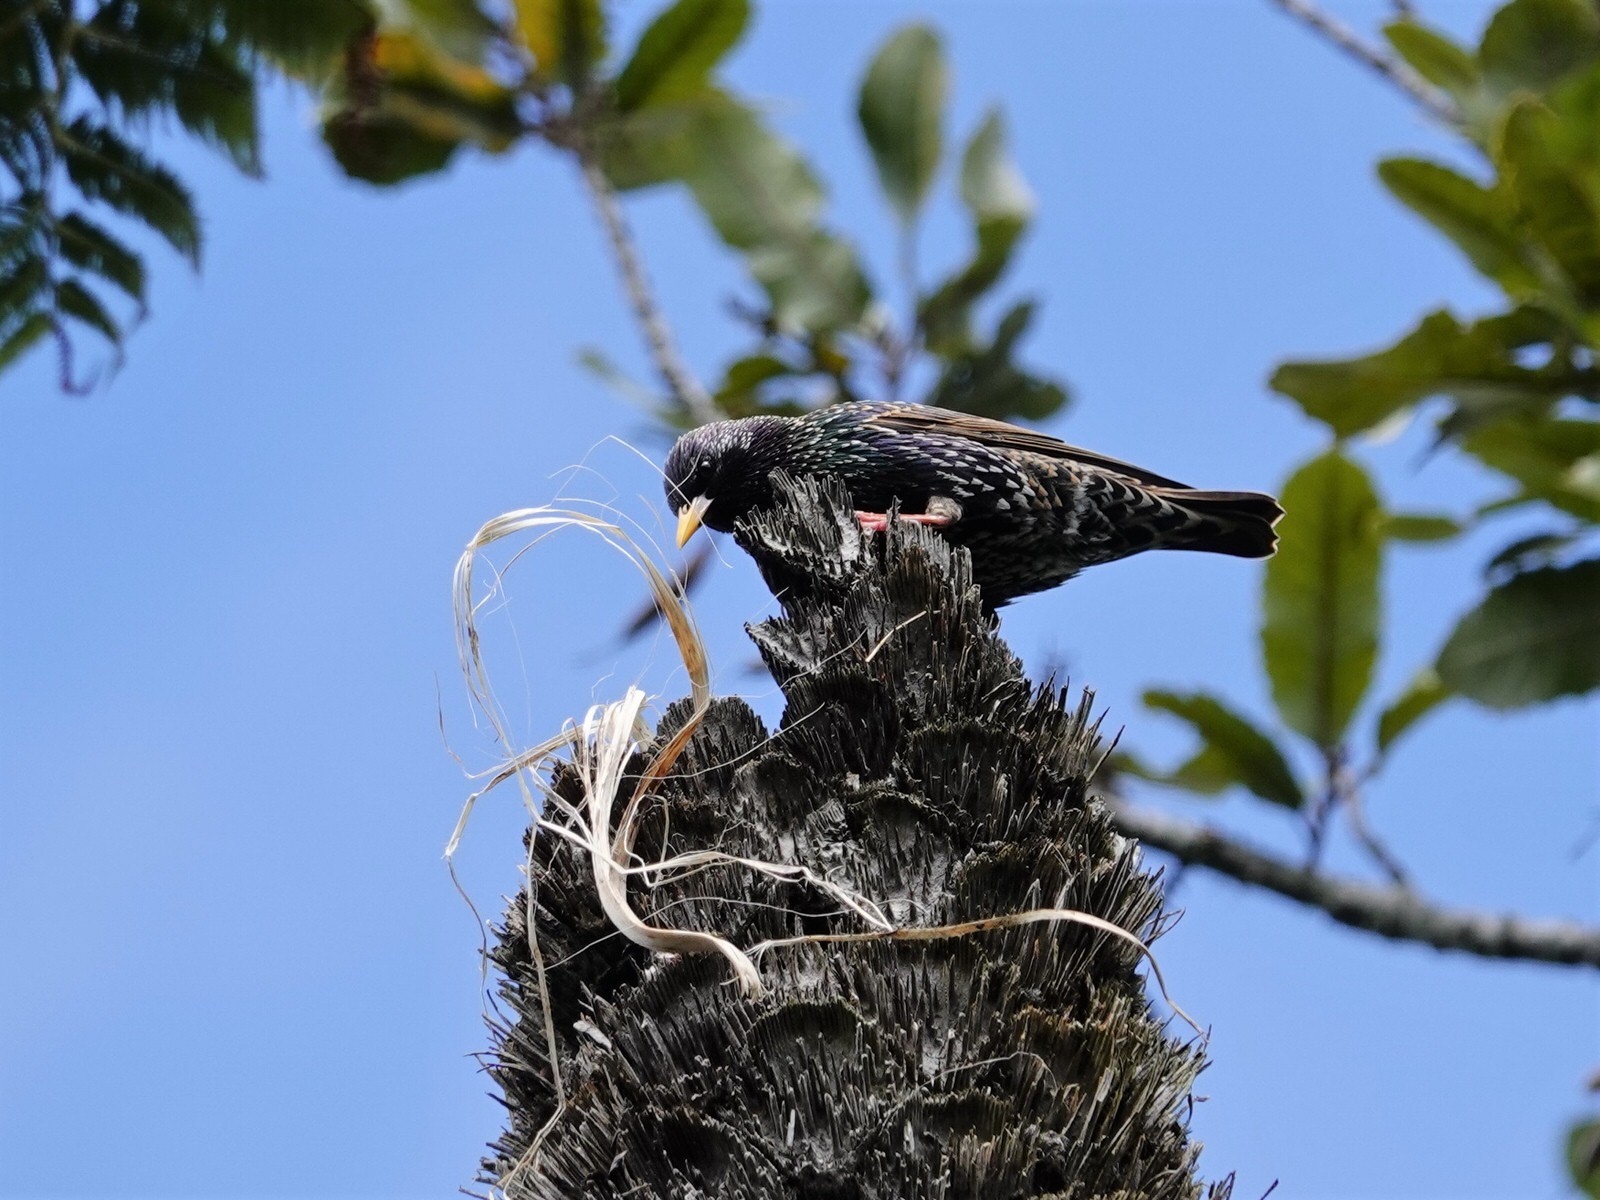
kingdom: Animalia
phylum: Chordata
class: Aves
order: Passeriformes
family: Sturnidae
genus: Sturnus
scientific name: Sturnus vulgaris
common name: Common starling
